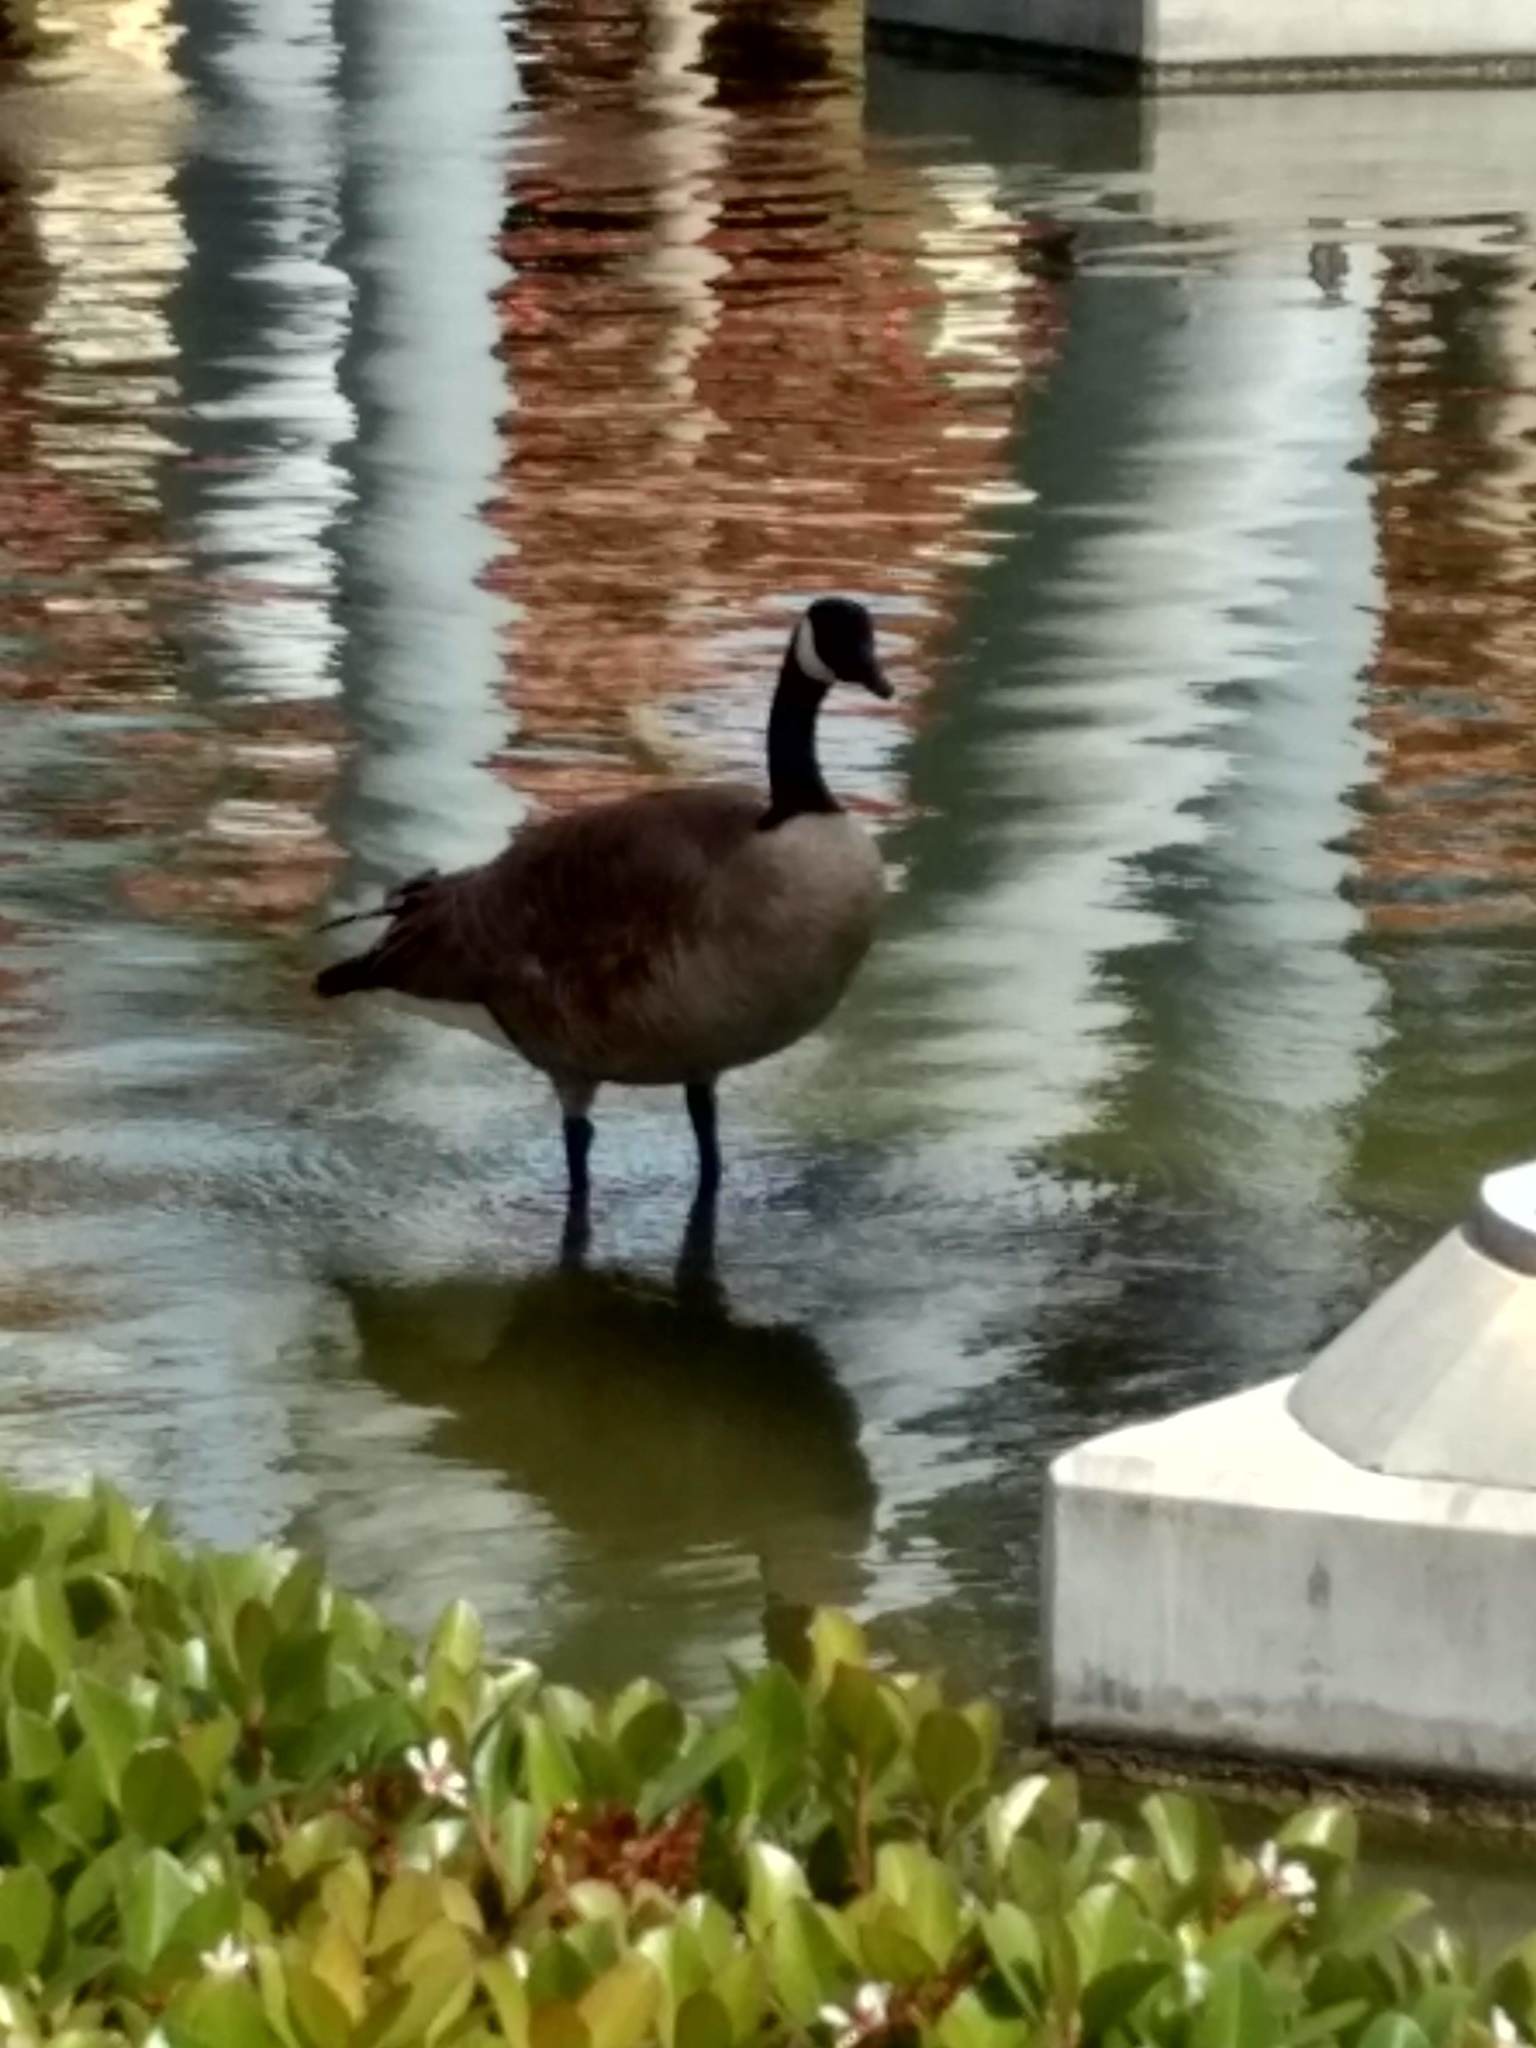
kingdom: Animalia
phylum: Chordata
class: Aves
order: Anseriformes
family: Anatidae
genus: Branta
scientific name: Branta canadensis
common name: Canada goose
